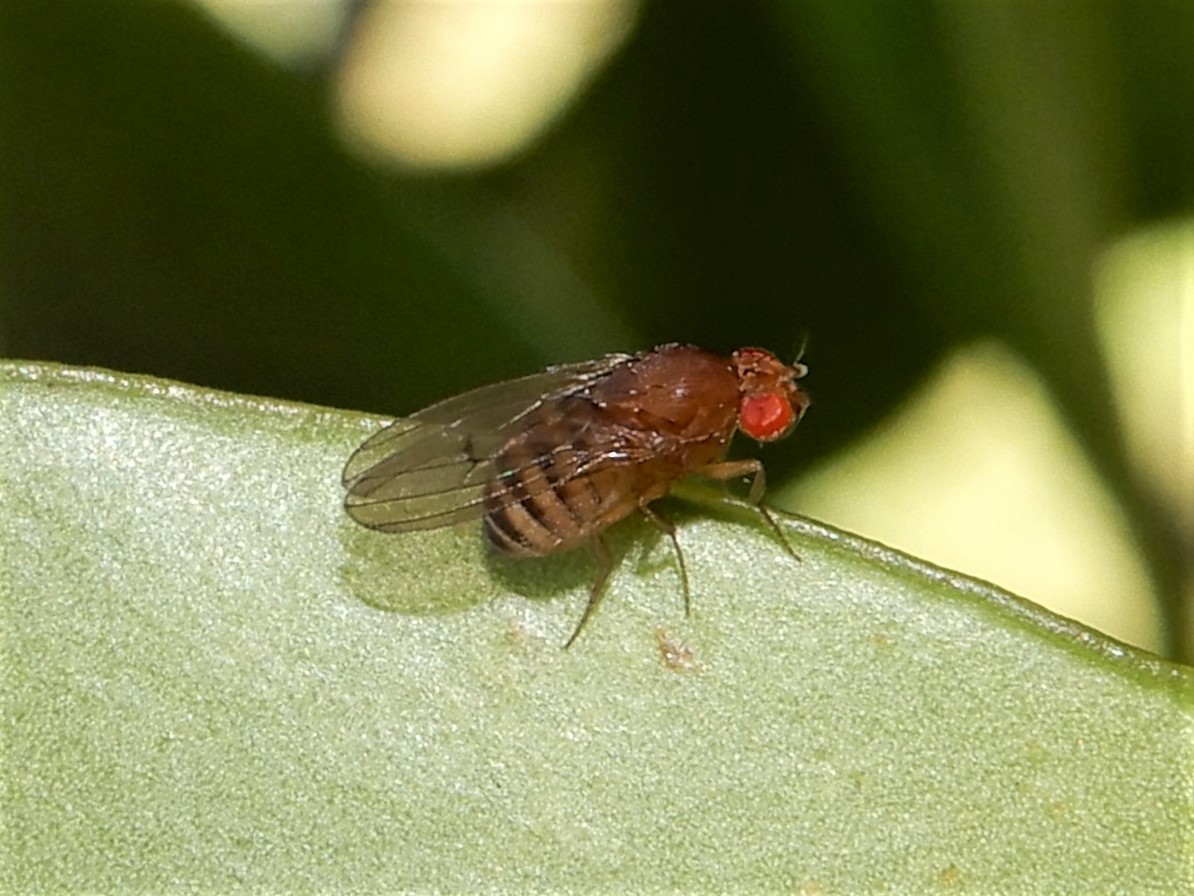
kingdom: Animalia
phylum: Arthropoda
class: Insecta
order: Diptera
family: Drosophilidae
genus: Drosophila
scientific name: Drosophila immigrans
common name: Pomace fly
